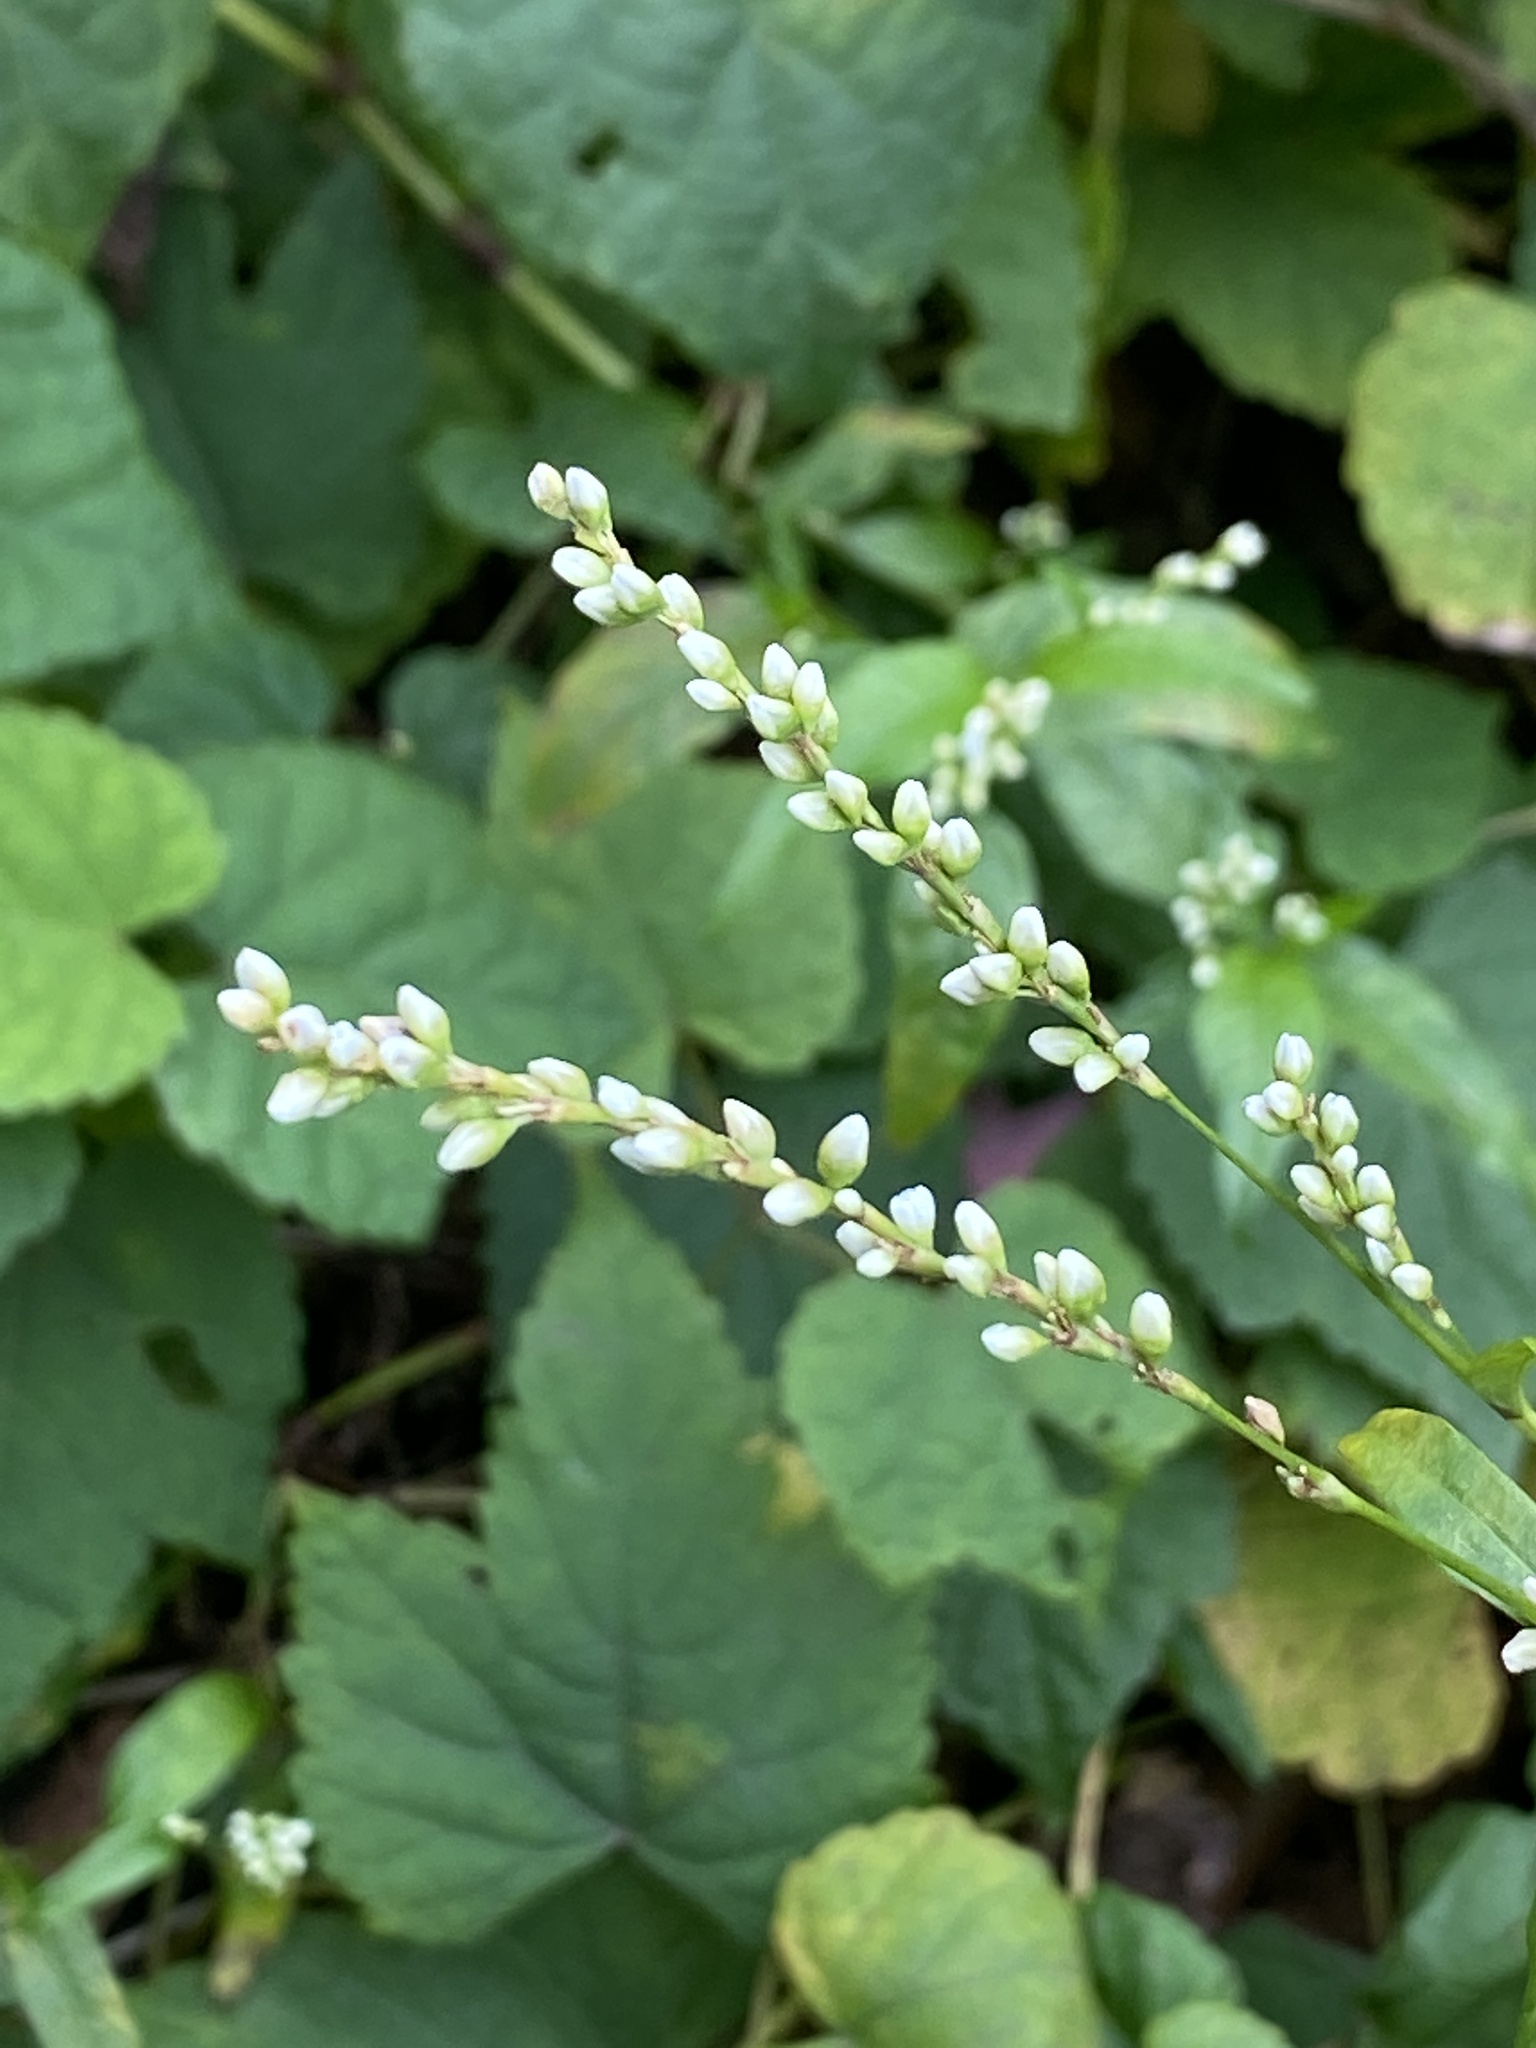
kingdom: Plantae
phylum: Tracheophyta
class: Magnoliopsida
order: Caryophyllales
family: Polygonaceae
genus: Persicaria
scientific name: Persicaria punctata
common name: Dotted smartweed
